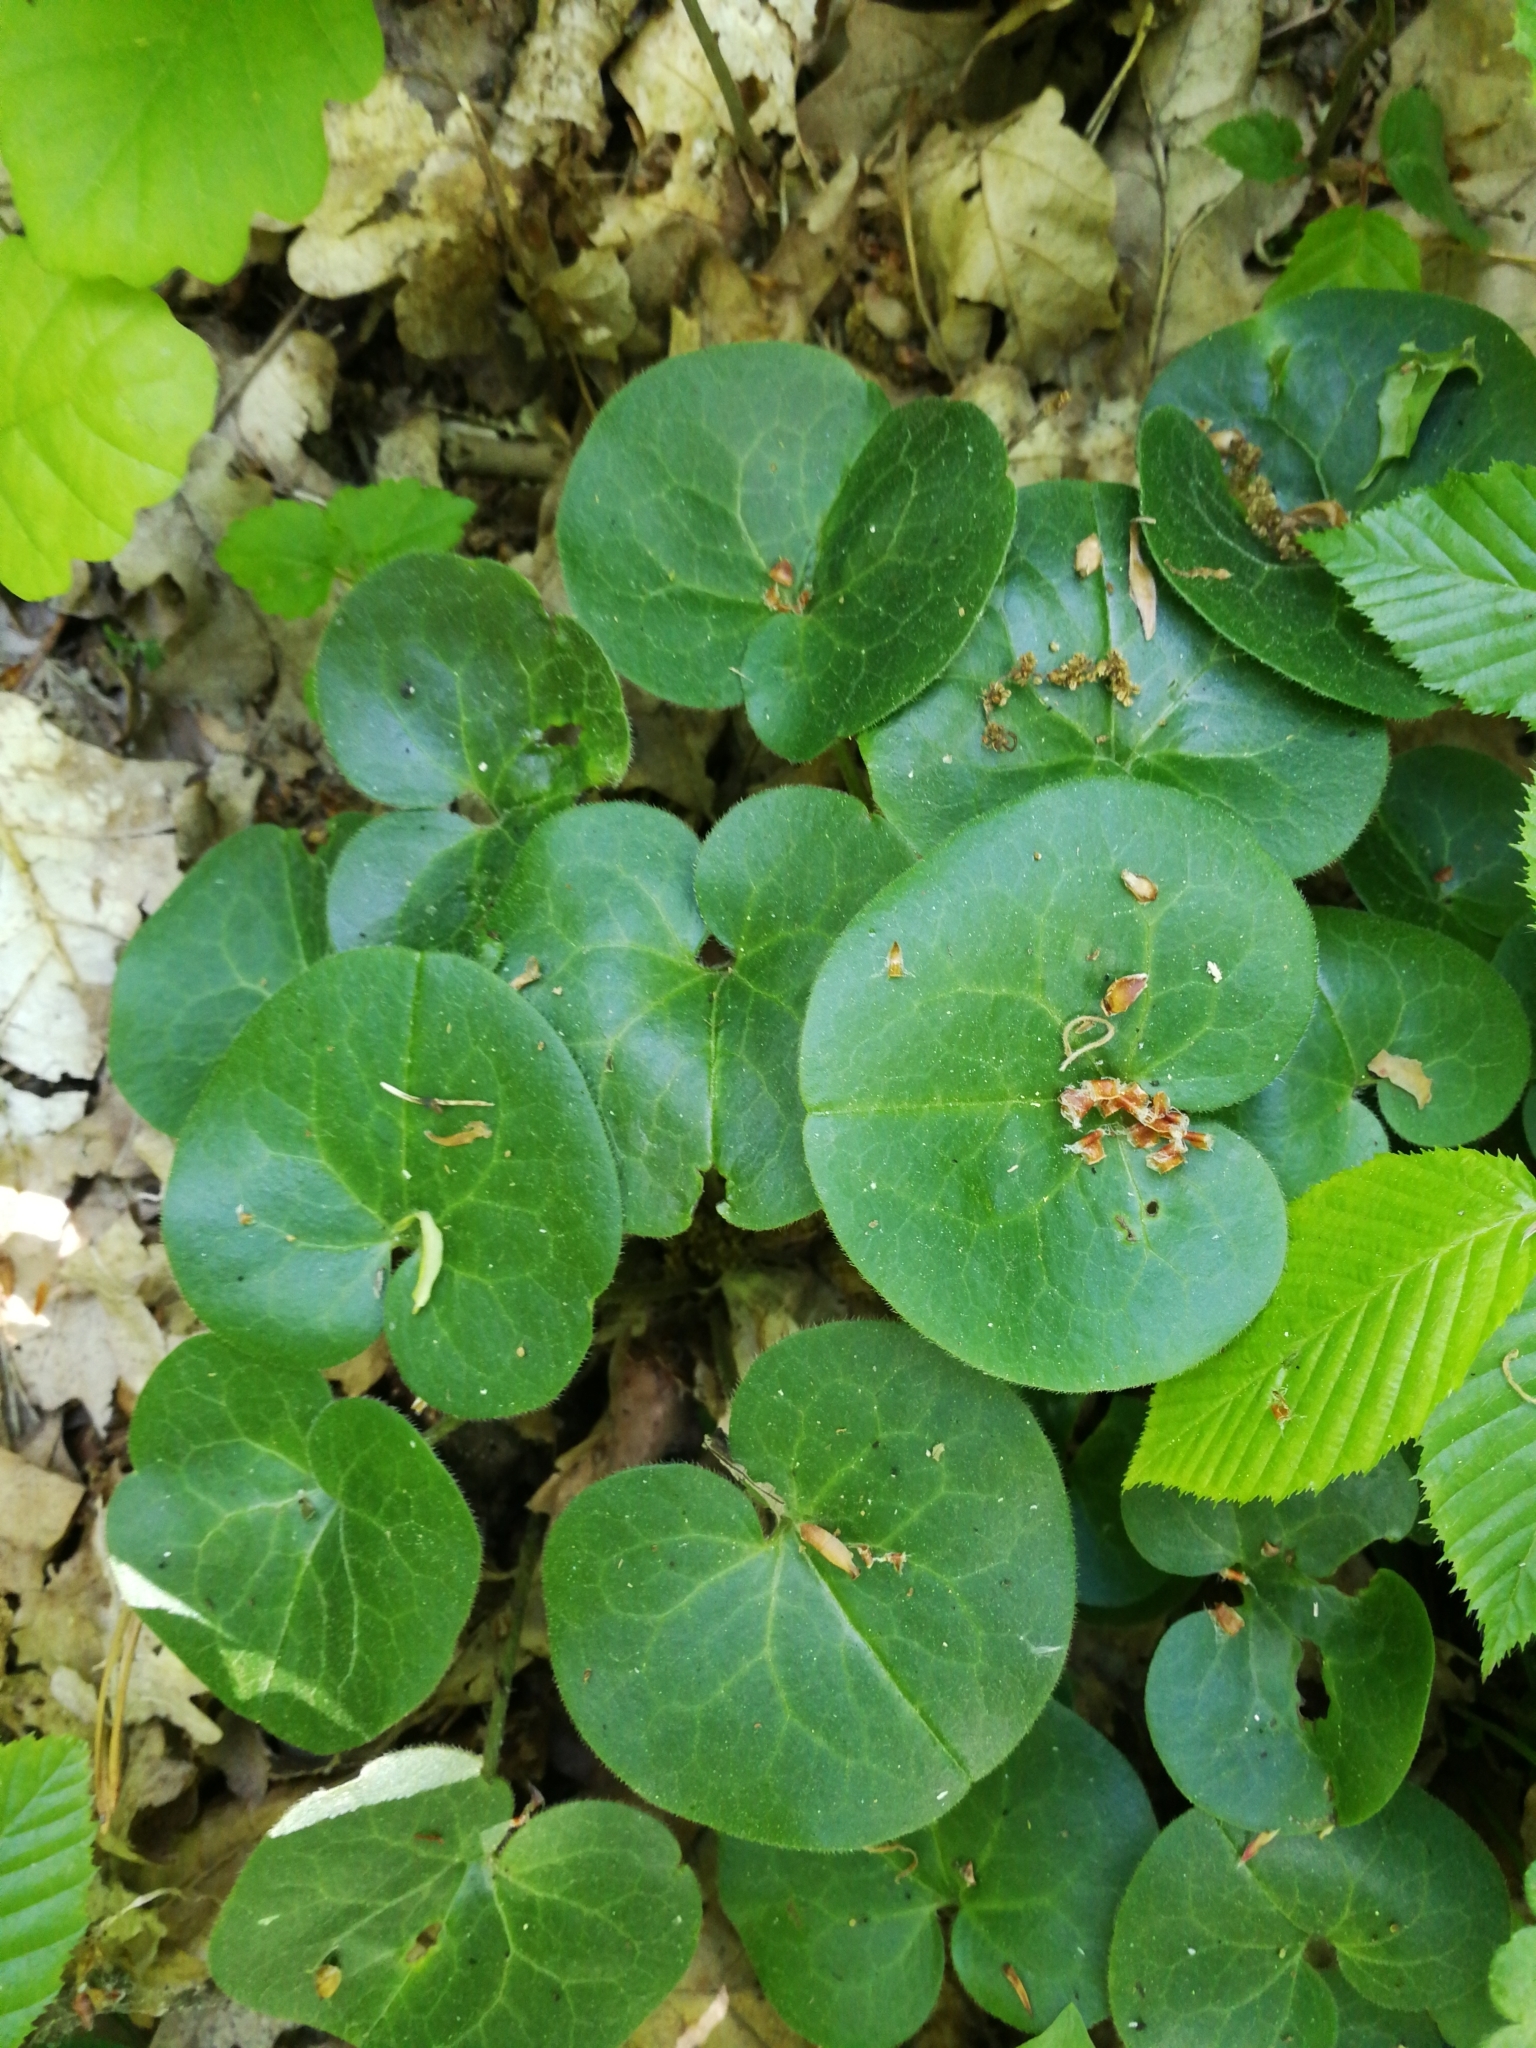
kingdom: Plantae
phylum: Tracheophyta
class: Magnoliopsida
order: Piperales
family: Aristolochiaceae
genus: Asarum
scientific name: Asarum europaeum
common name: Asarabacca
